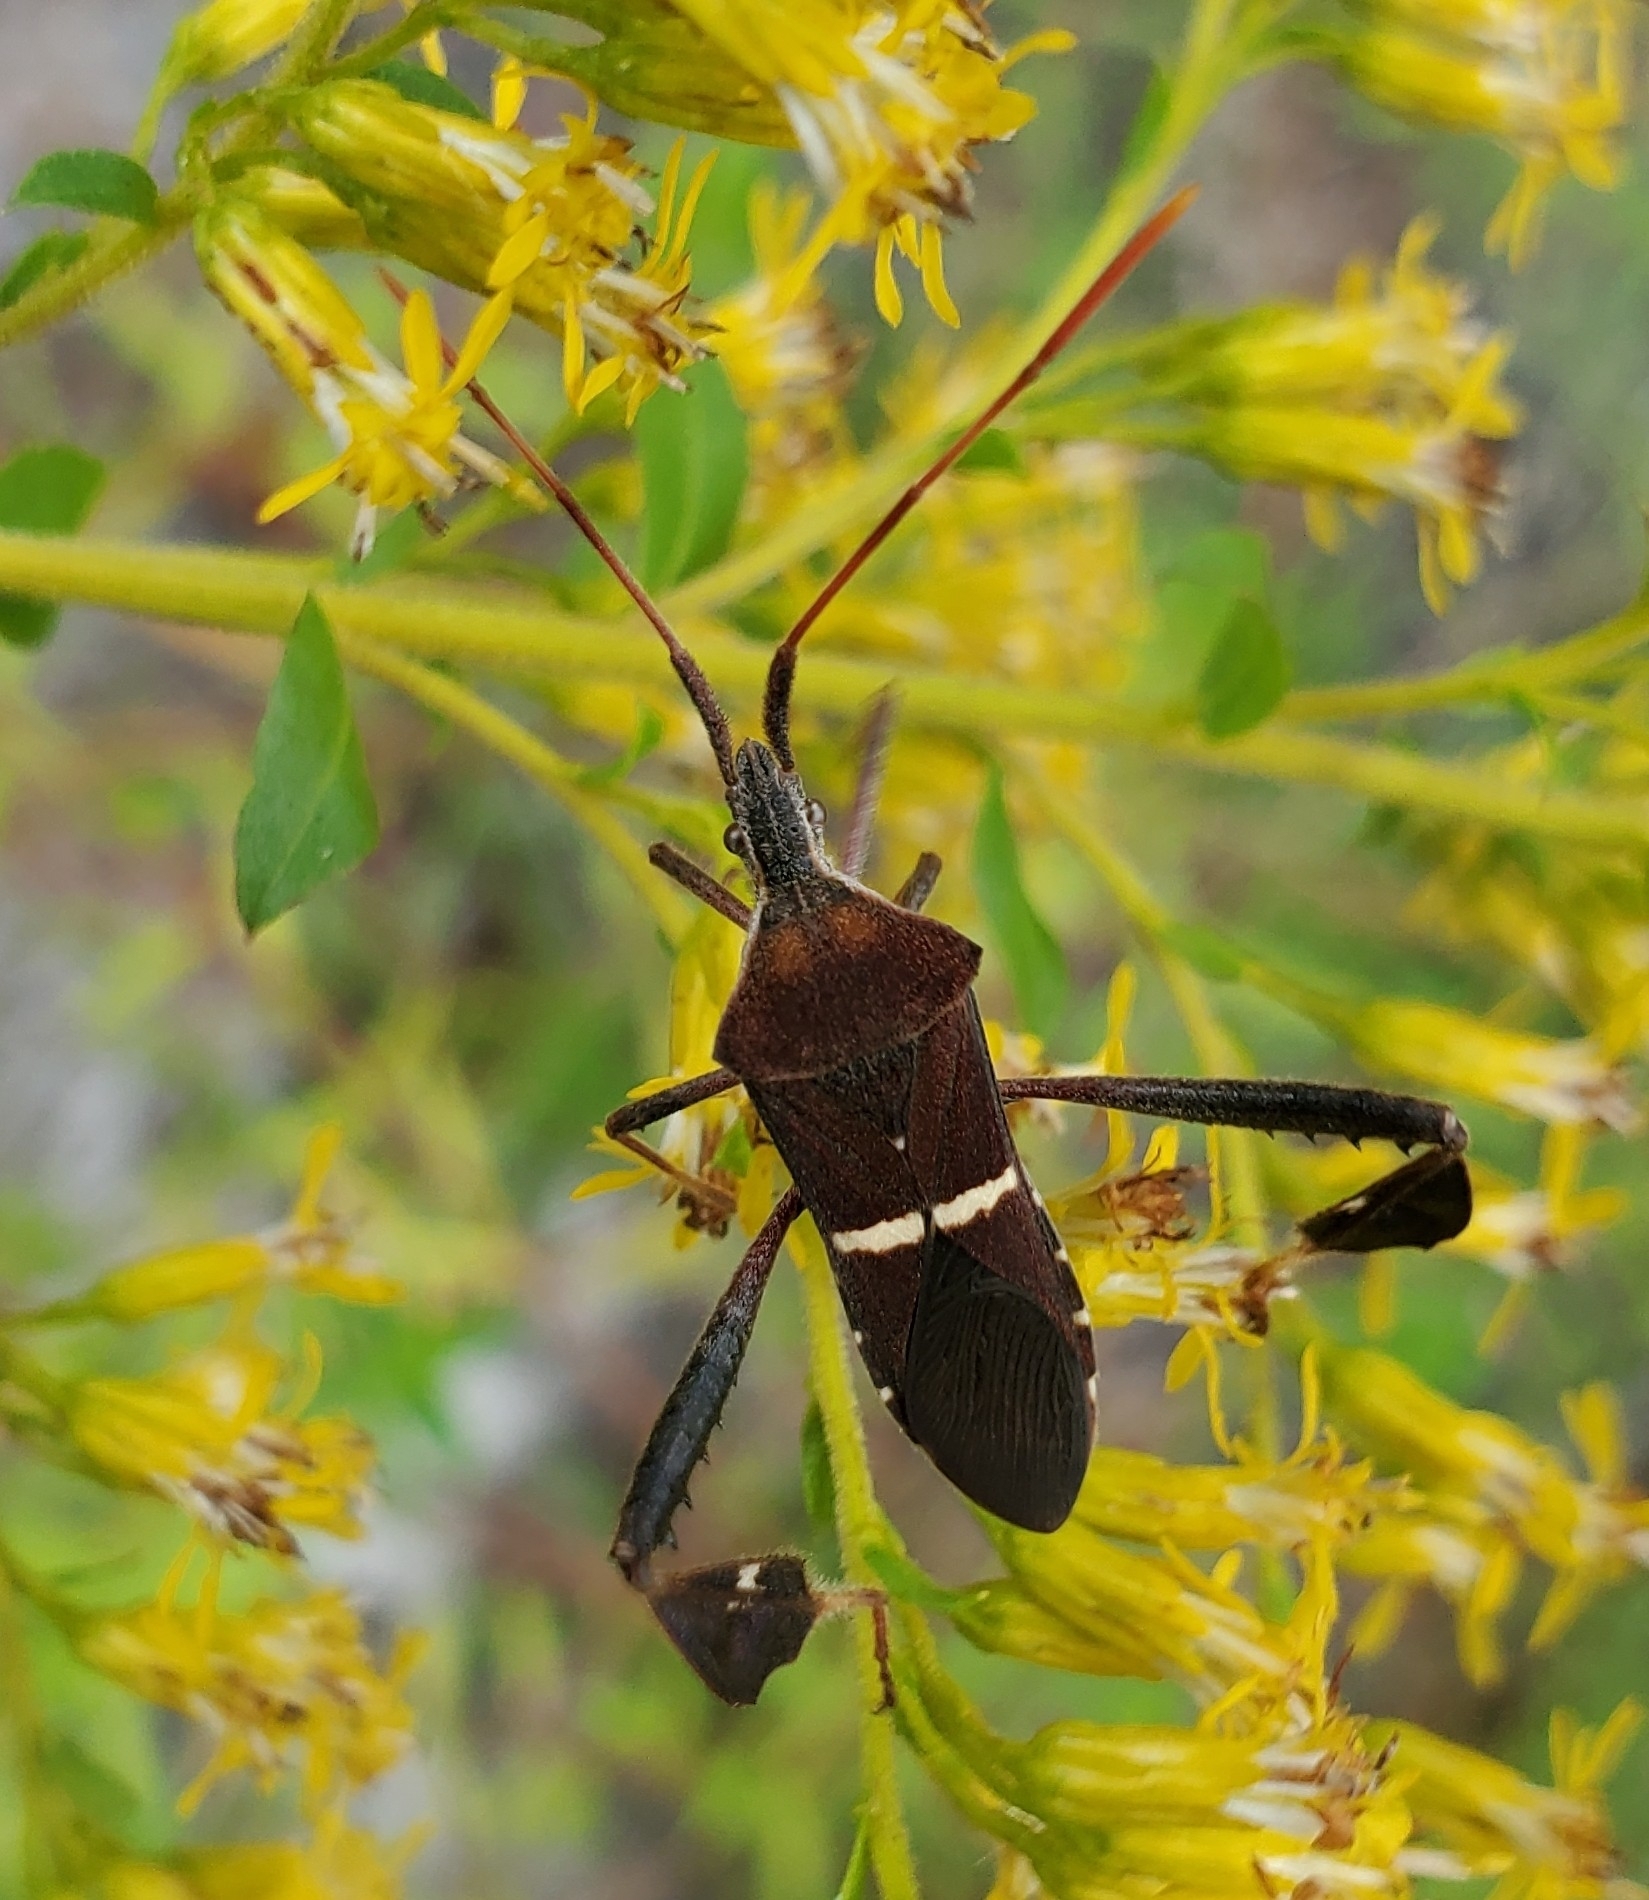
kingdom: Animalia
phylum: Arthropoda
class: Insecta
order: Hemiptera
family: Coreidae
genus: Leptoglossus
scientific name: Leptoglossus phyllopus
